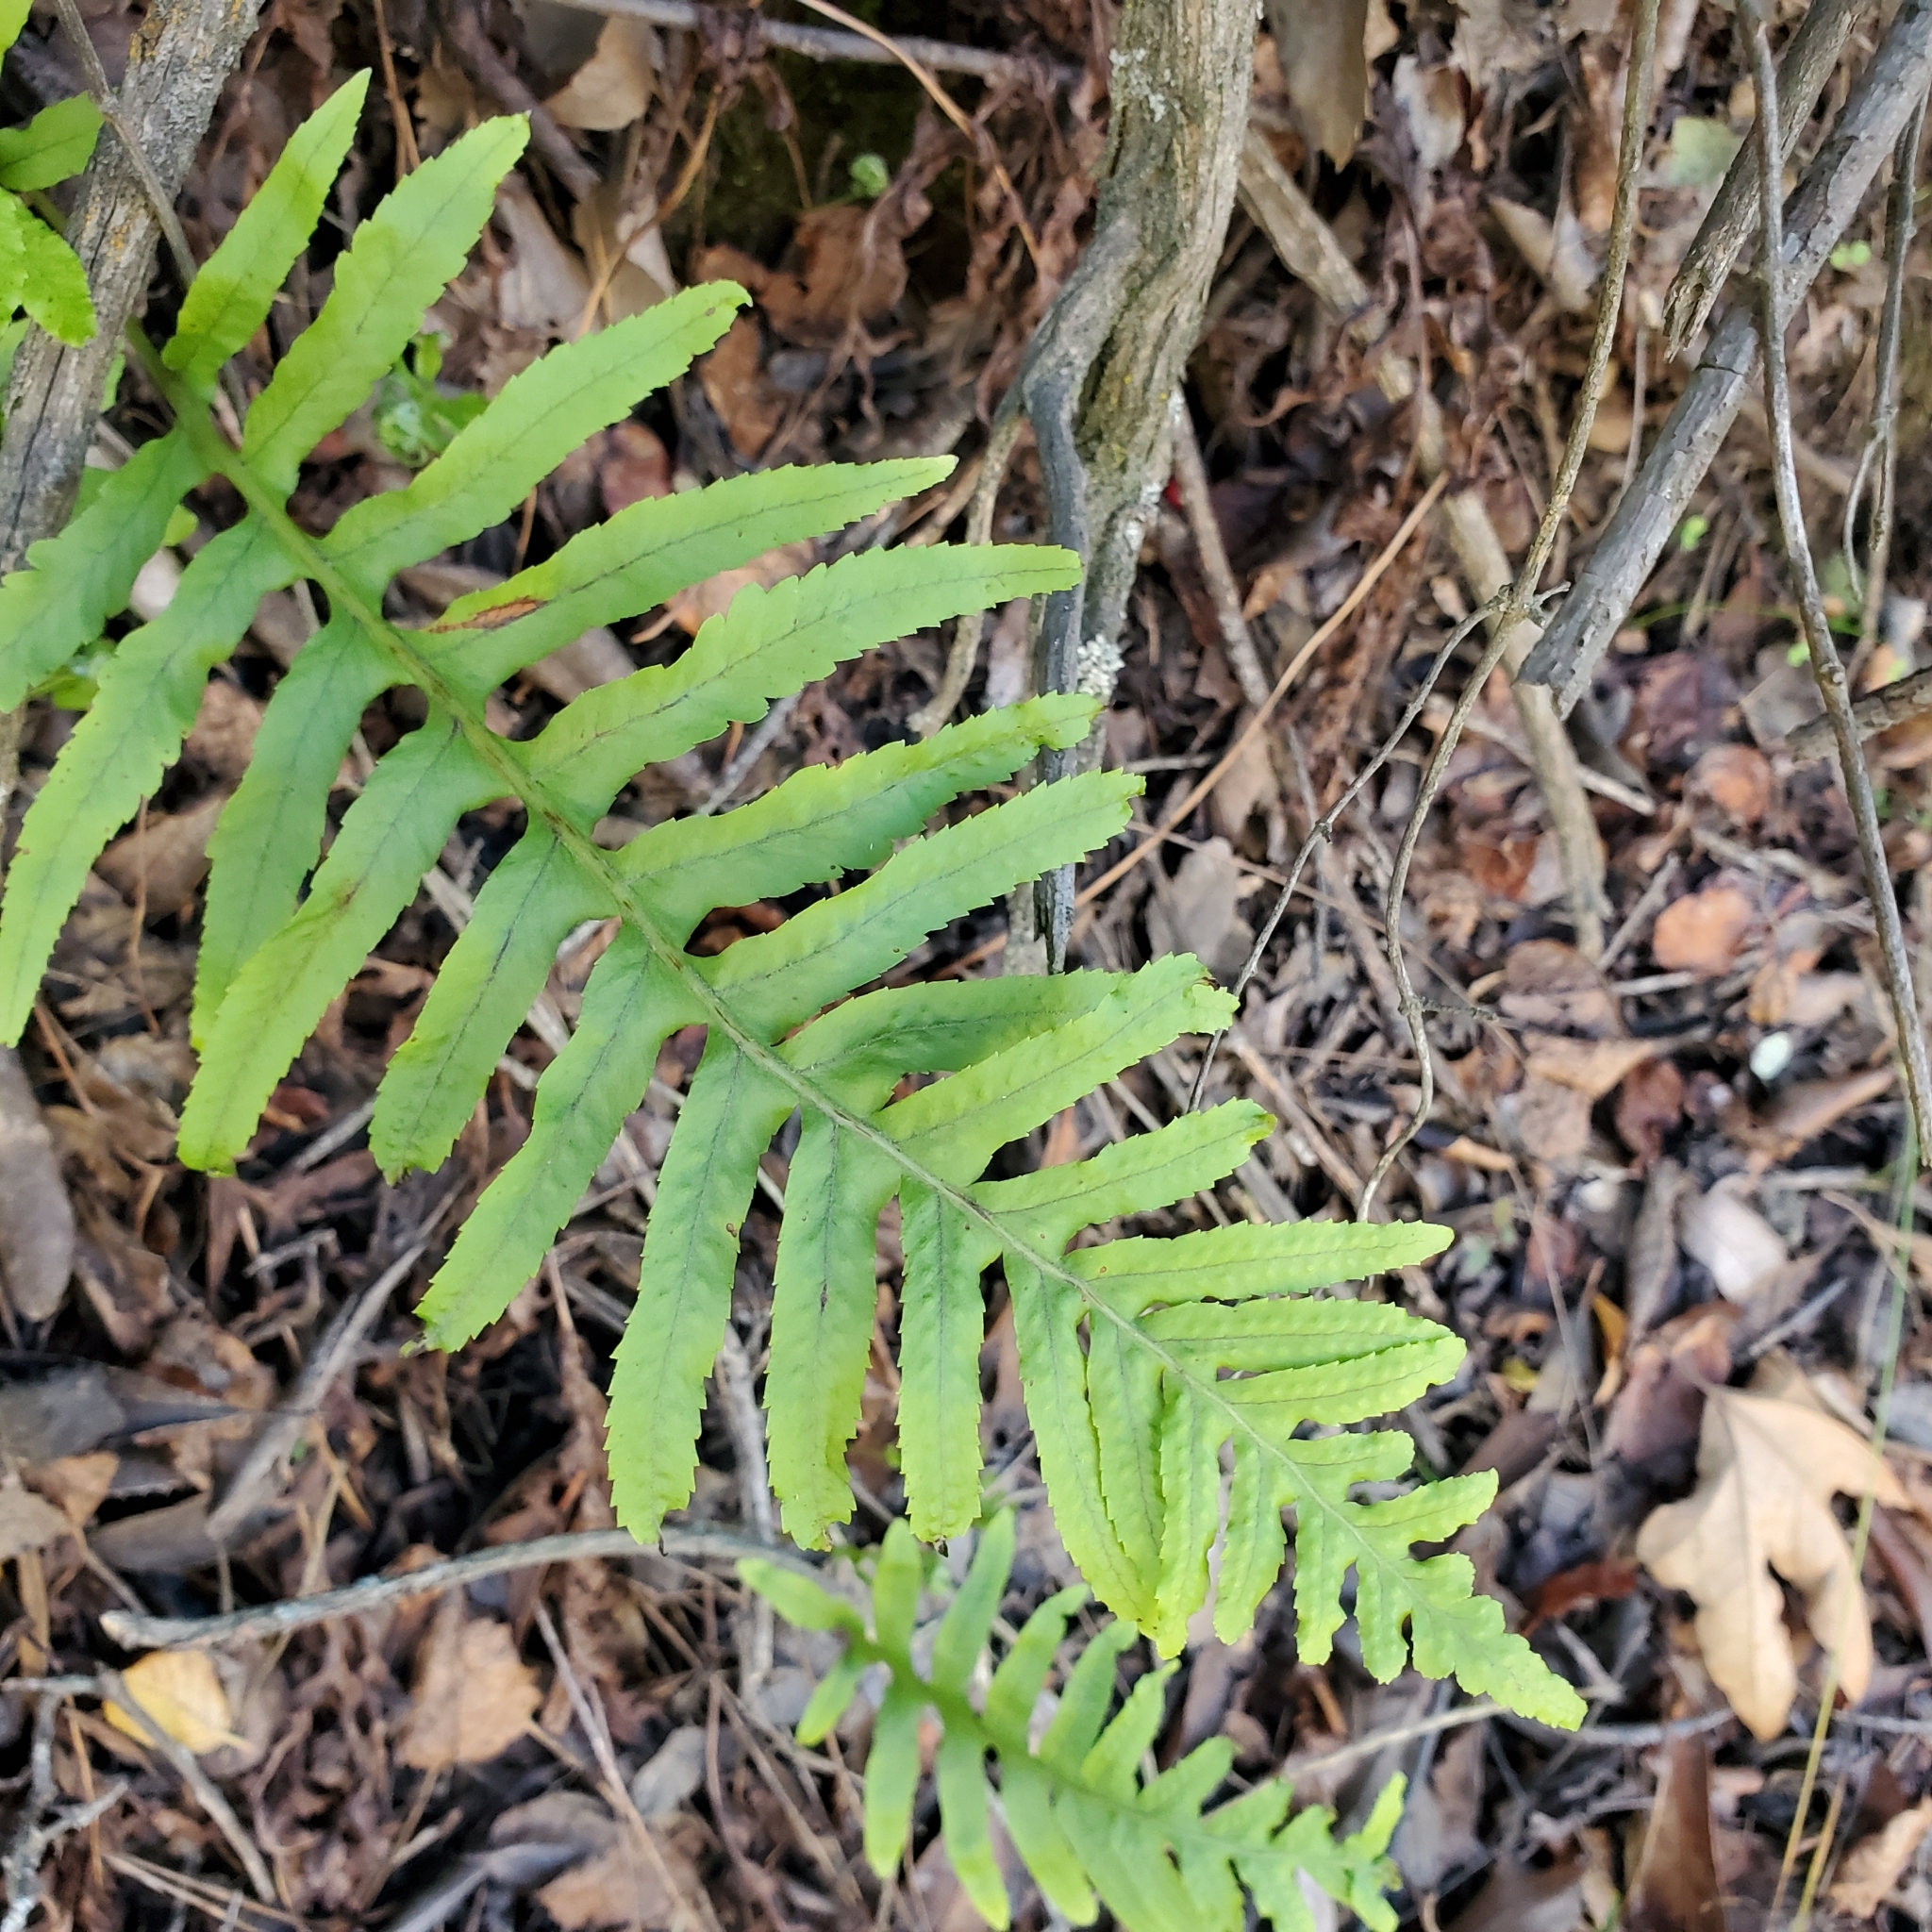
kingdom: Plantae
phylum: Tracheophyta
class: Polypodiopsida
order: Polypodiales
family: Polypodiaceae
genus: Polypodium
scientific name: Polypodium californicum
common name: California polypody
